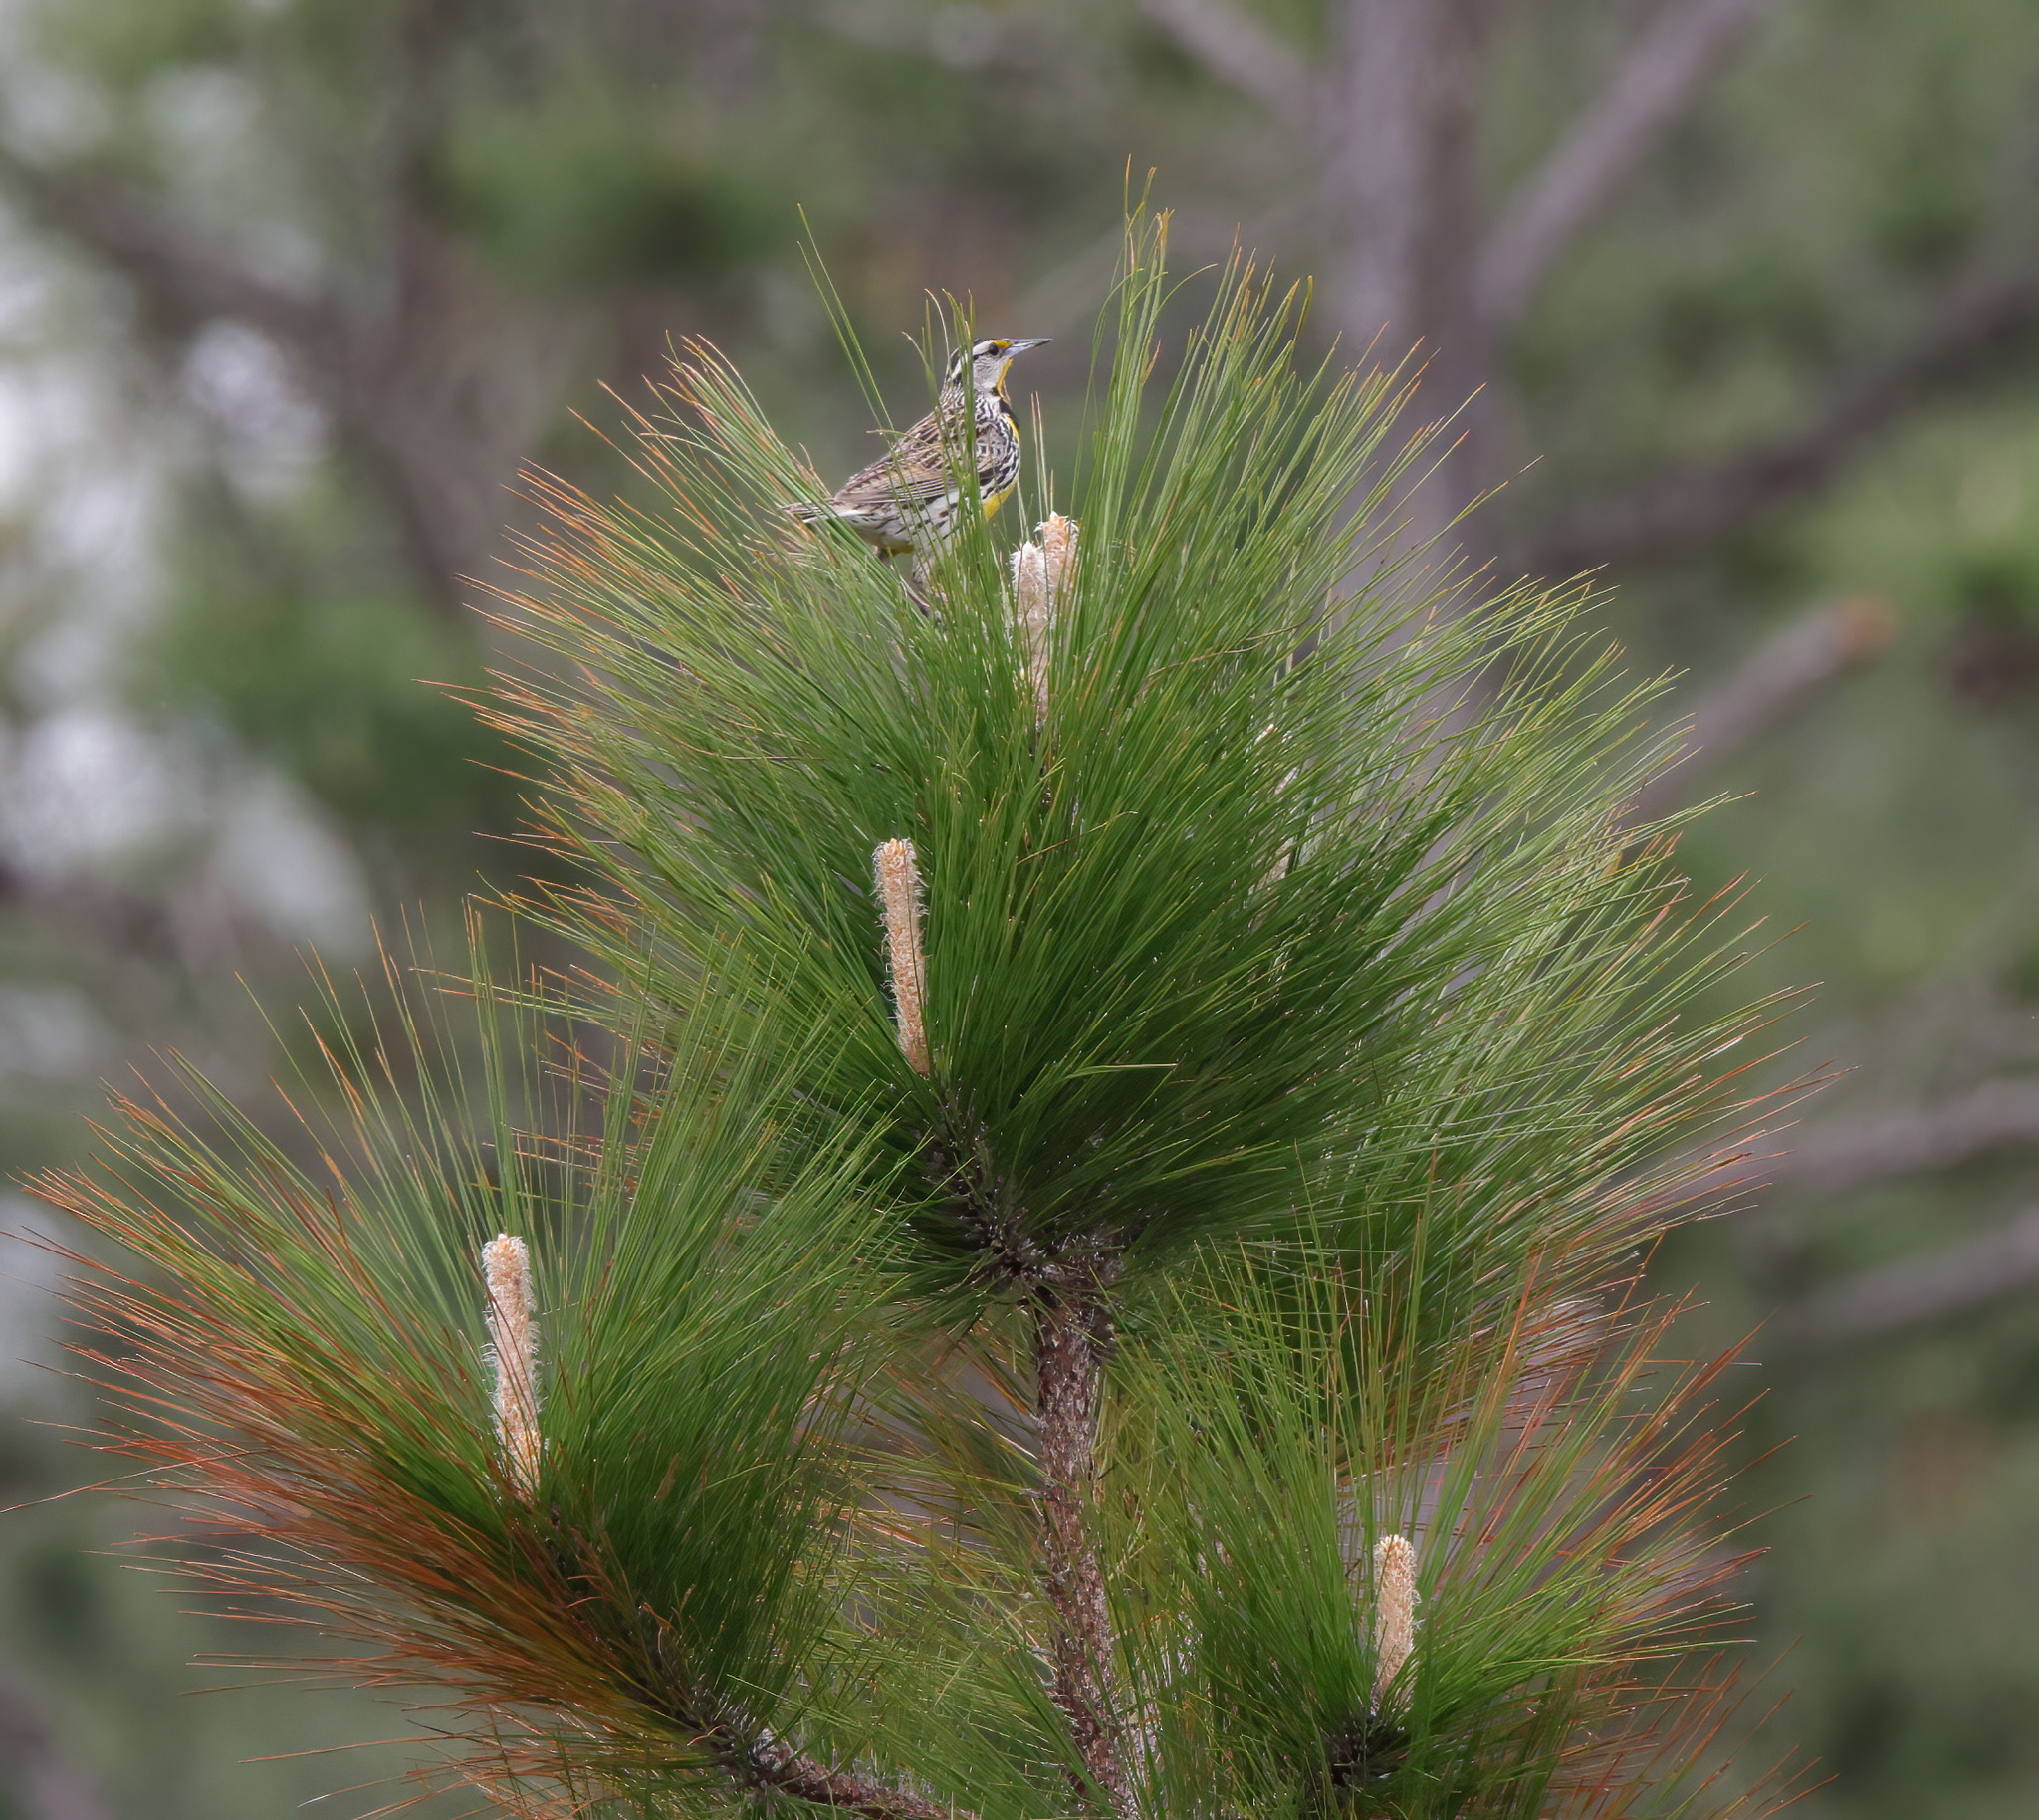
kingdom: Animalia
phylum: Chordata
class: Aves
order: Passeriformes
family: Icteridae
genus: Sturnella
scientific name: Sturnella magna
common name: Eastern meadowlark
